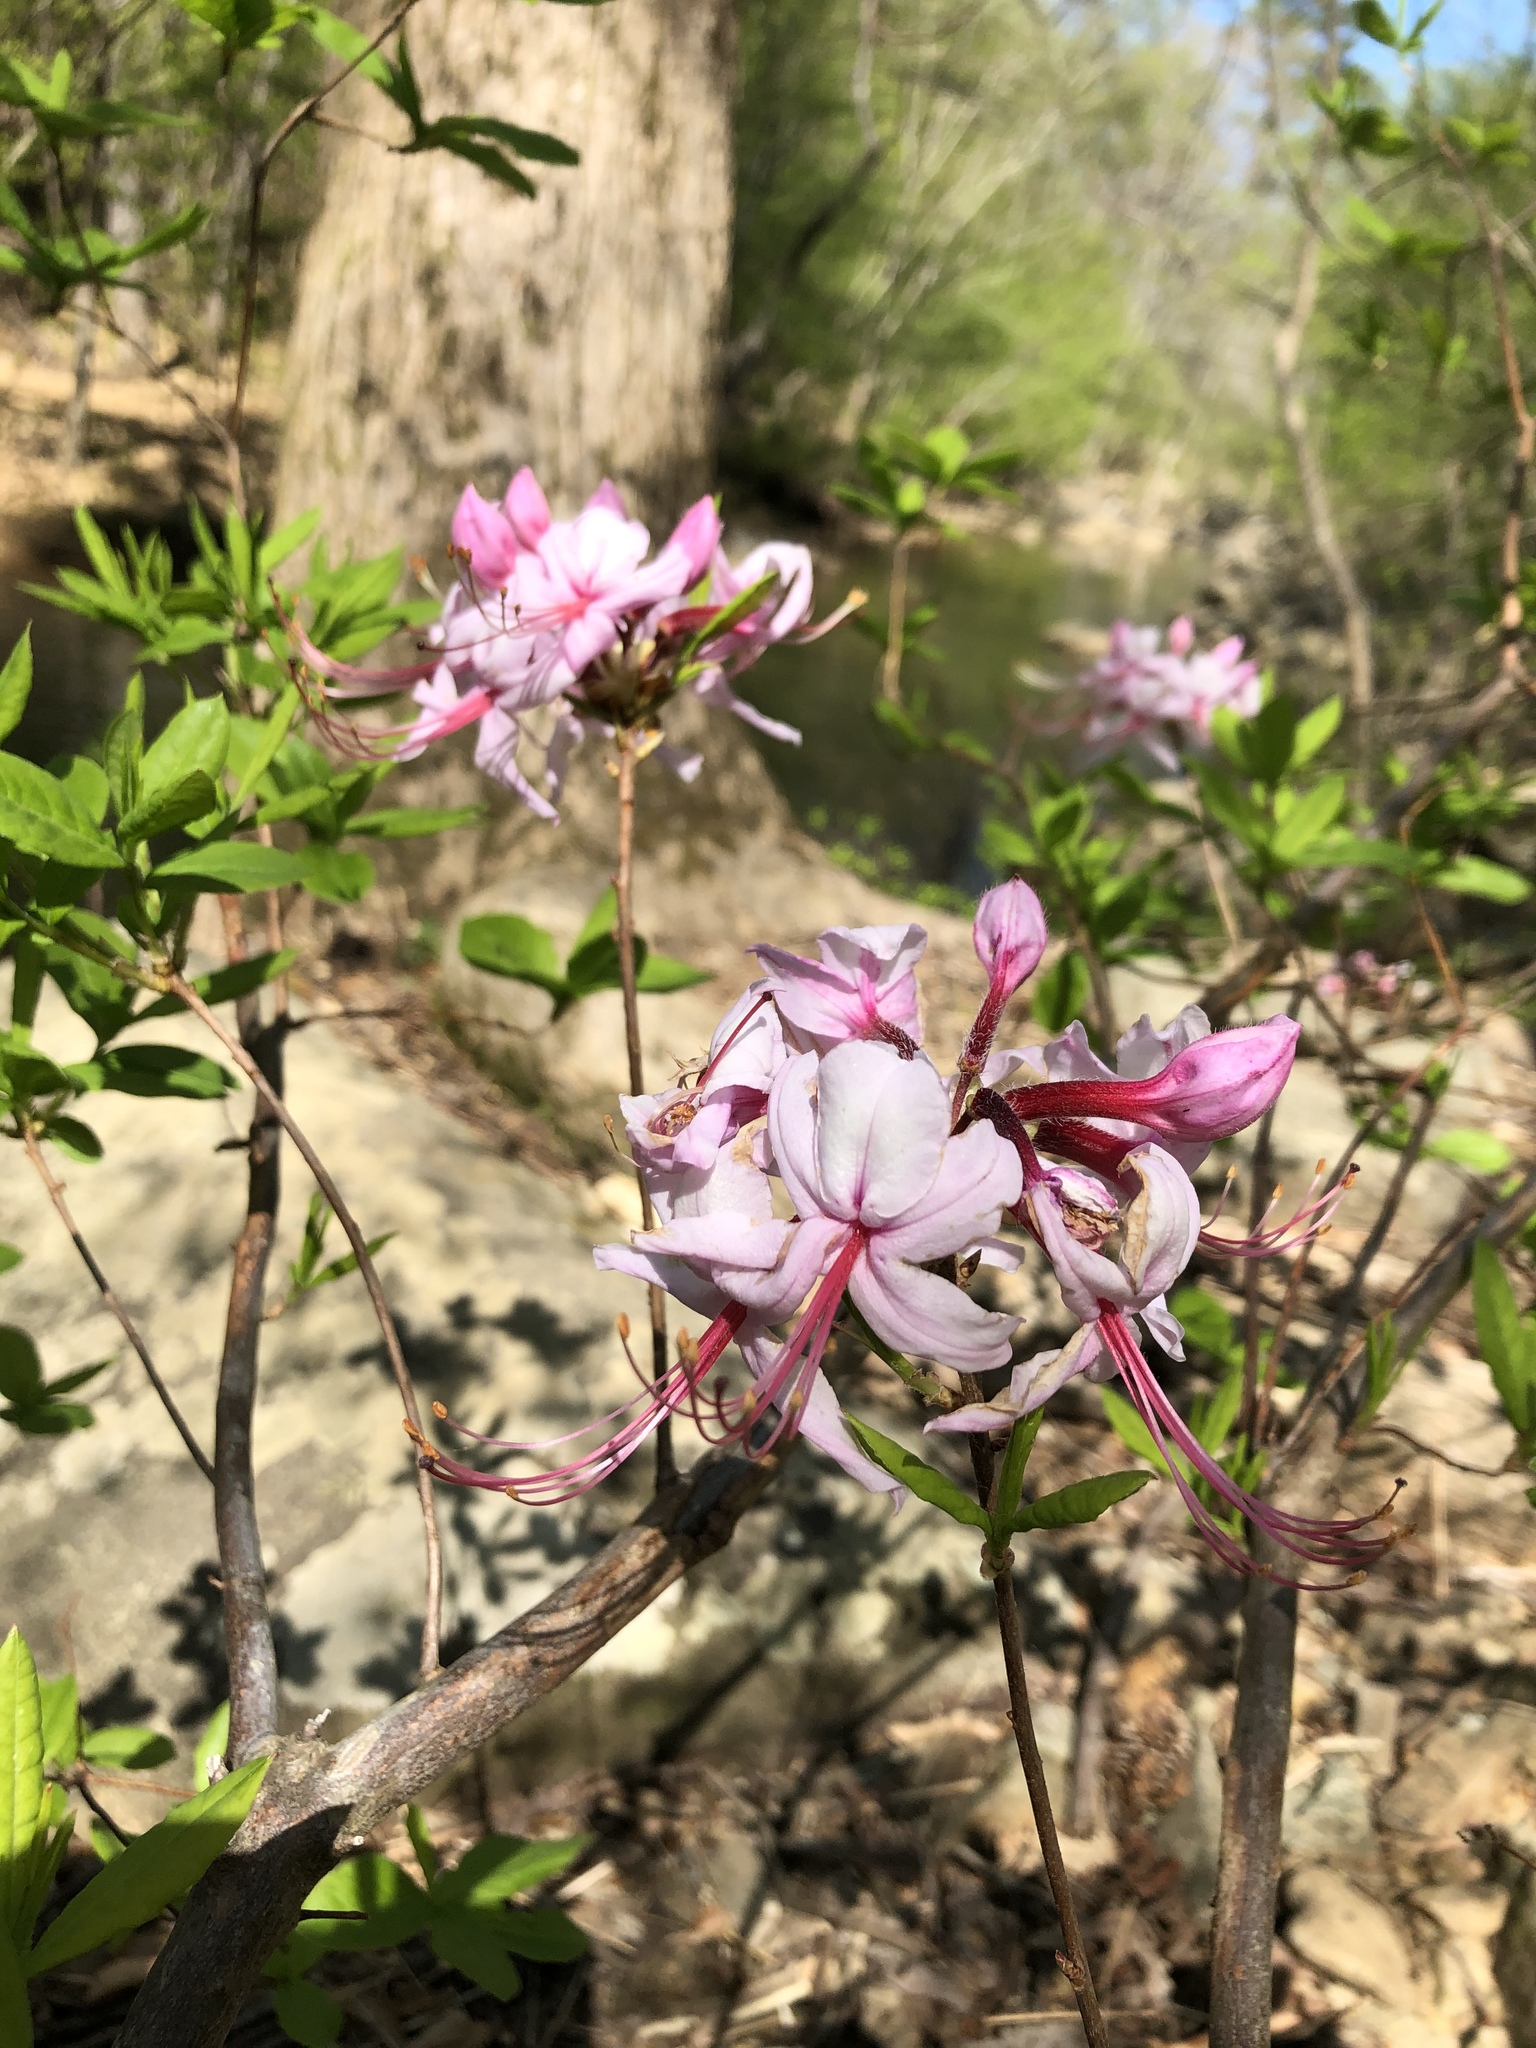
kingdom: Plantae
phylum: Tracheophyta
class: Magnoliopsida
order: Ericales
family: Ericaceae
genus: Rhododendron
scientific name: Rhododendron periclymenoides
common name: Election-pink
